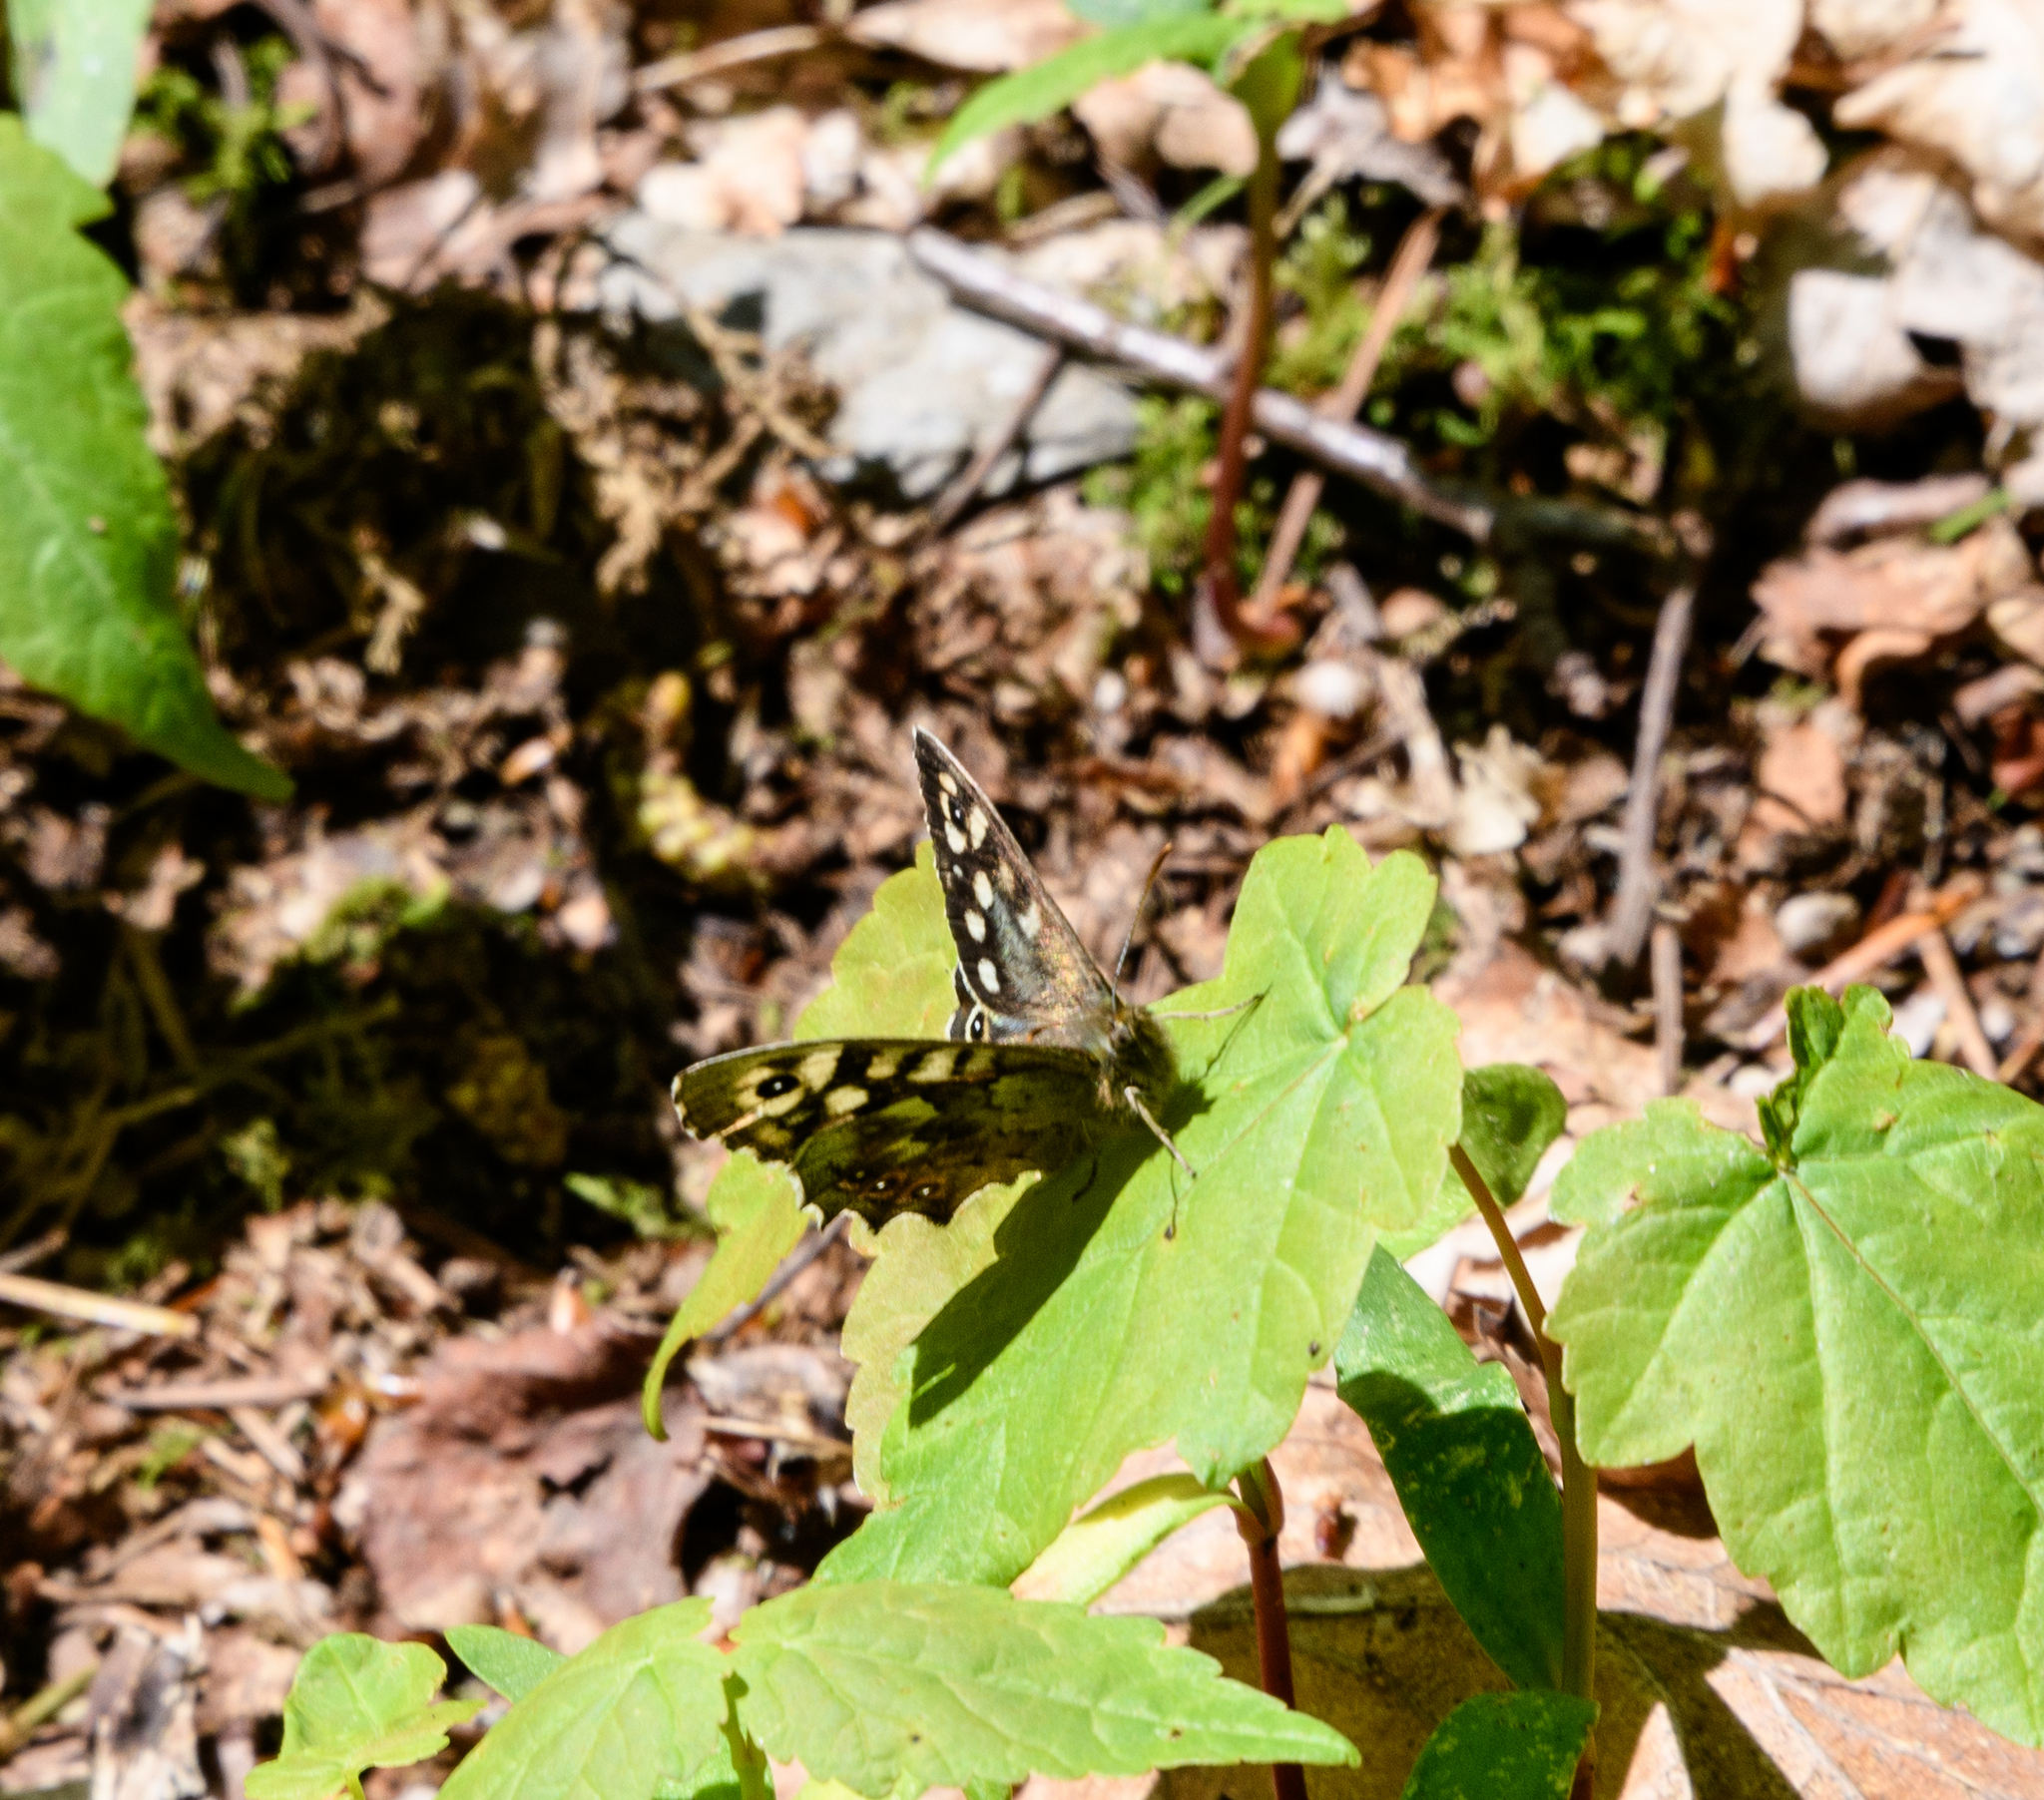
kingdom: Animalia
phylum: Arthropoda
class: Insecta
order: Lepidoptera
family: Nymphalidae
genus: Pararge
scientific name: Pararge aegeria
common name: Speckled wood
